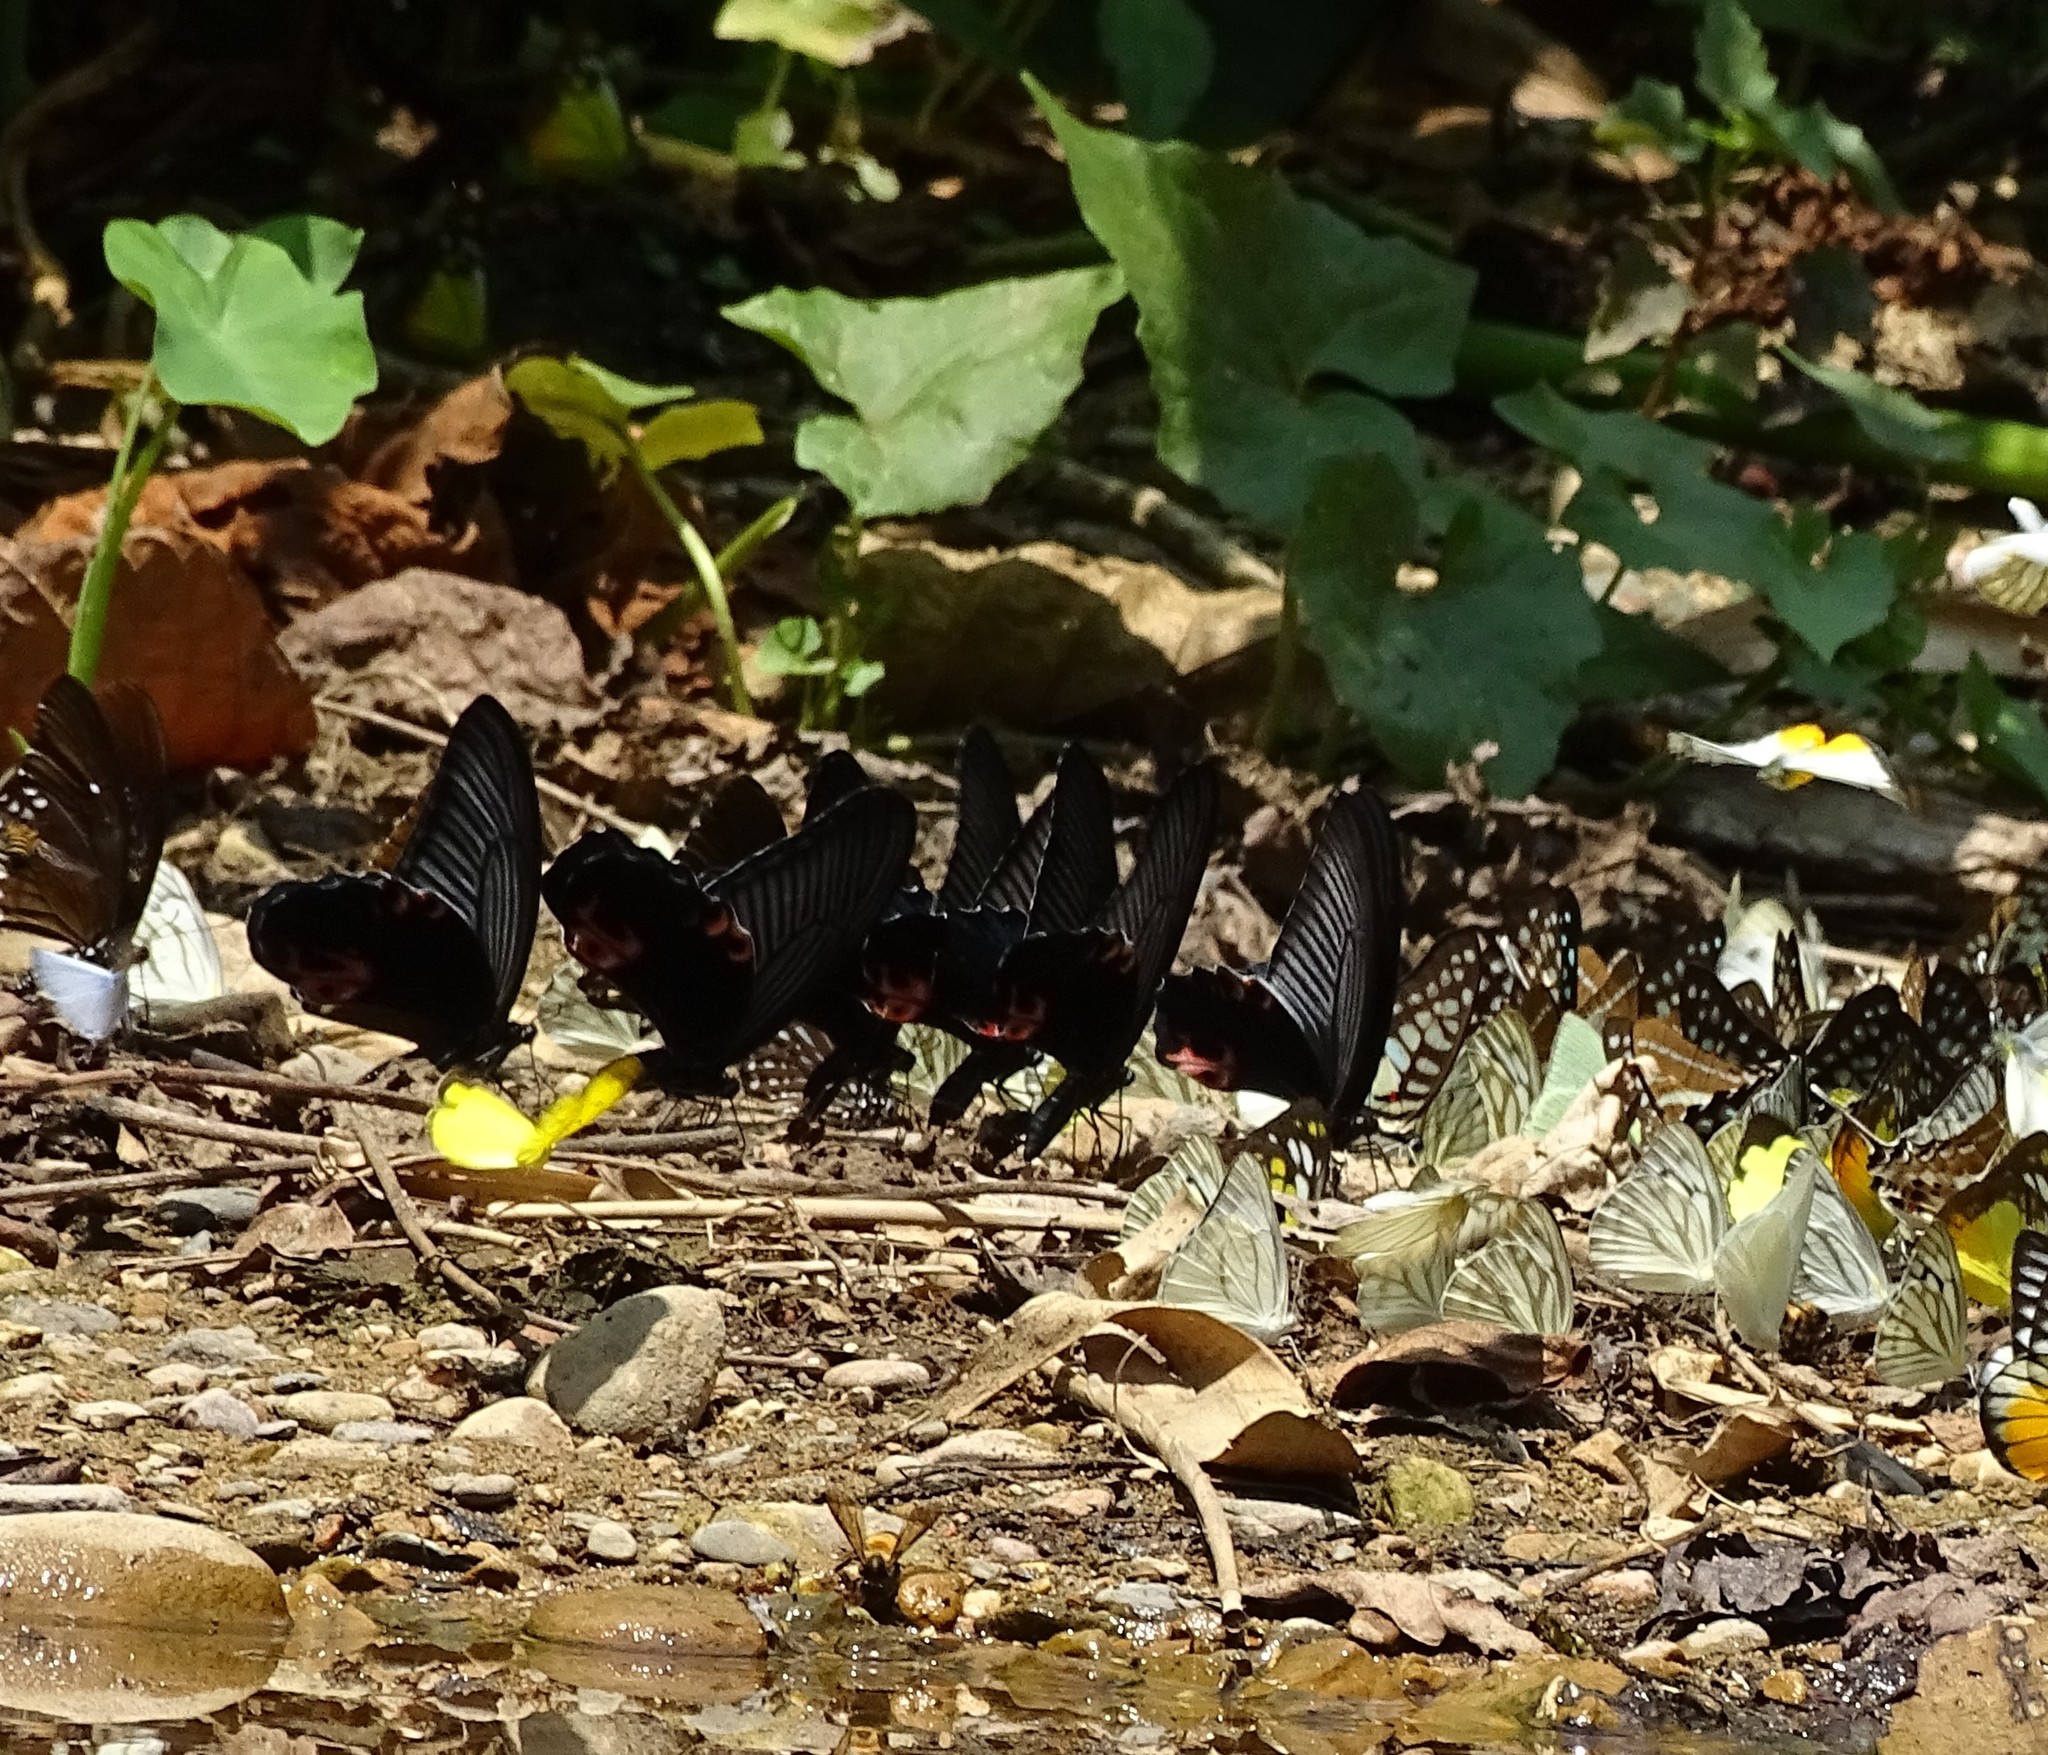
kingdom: Animalia
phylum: Arthropoda
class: Insecta
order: Lepidoptera
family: Papilionidae
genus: Papilio
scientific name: Papilio protenor
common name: Spangle
